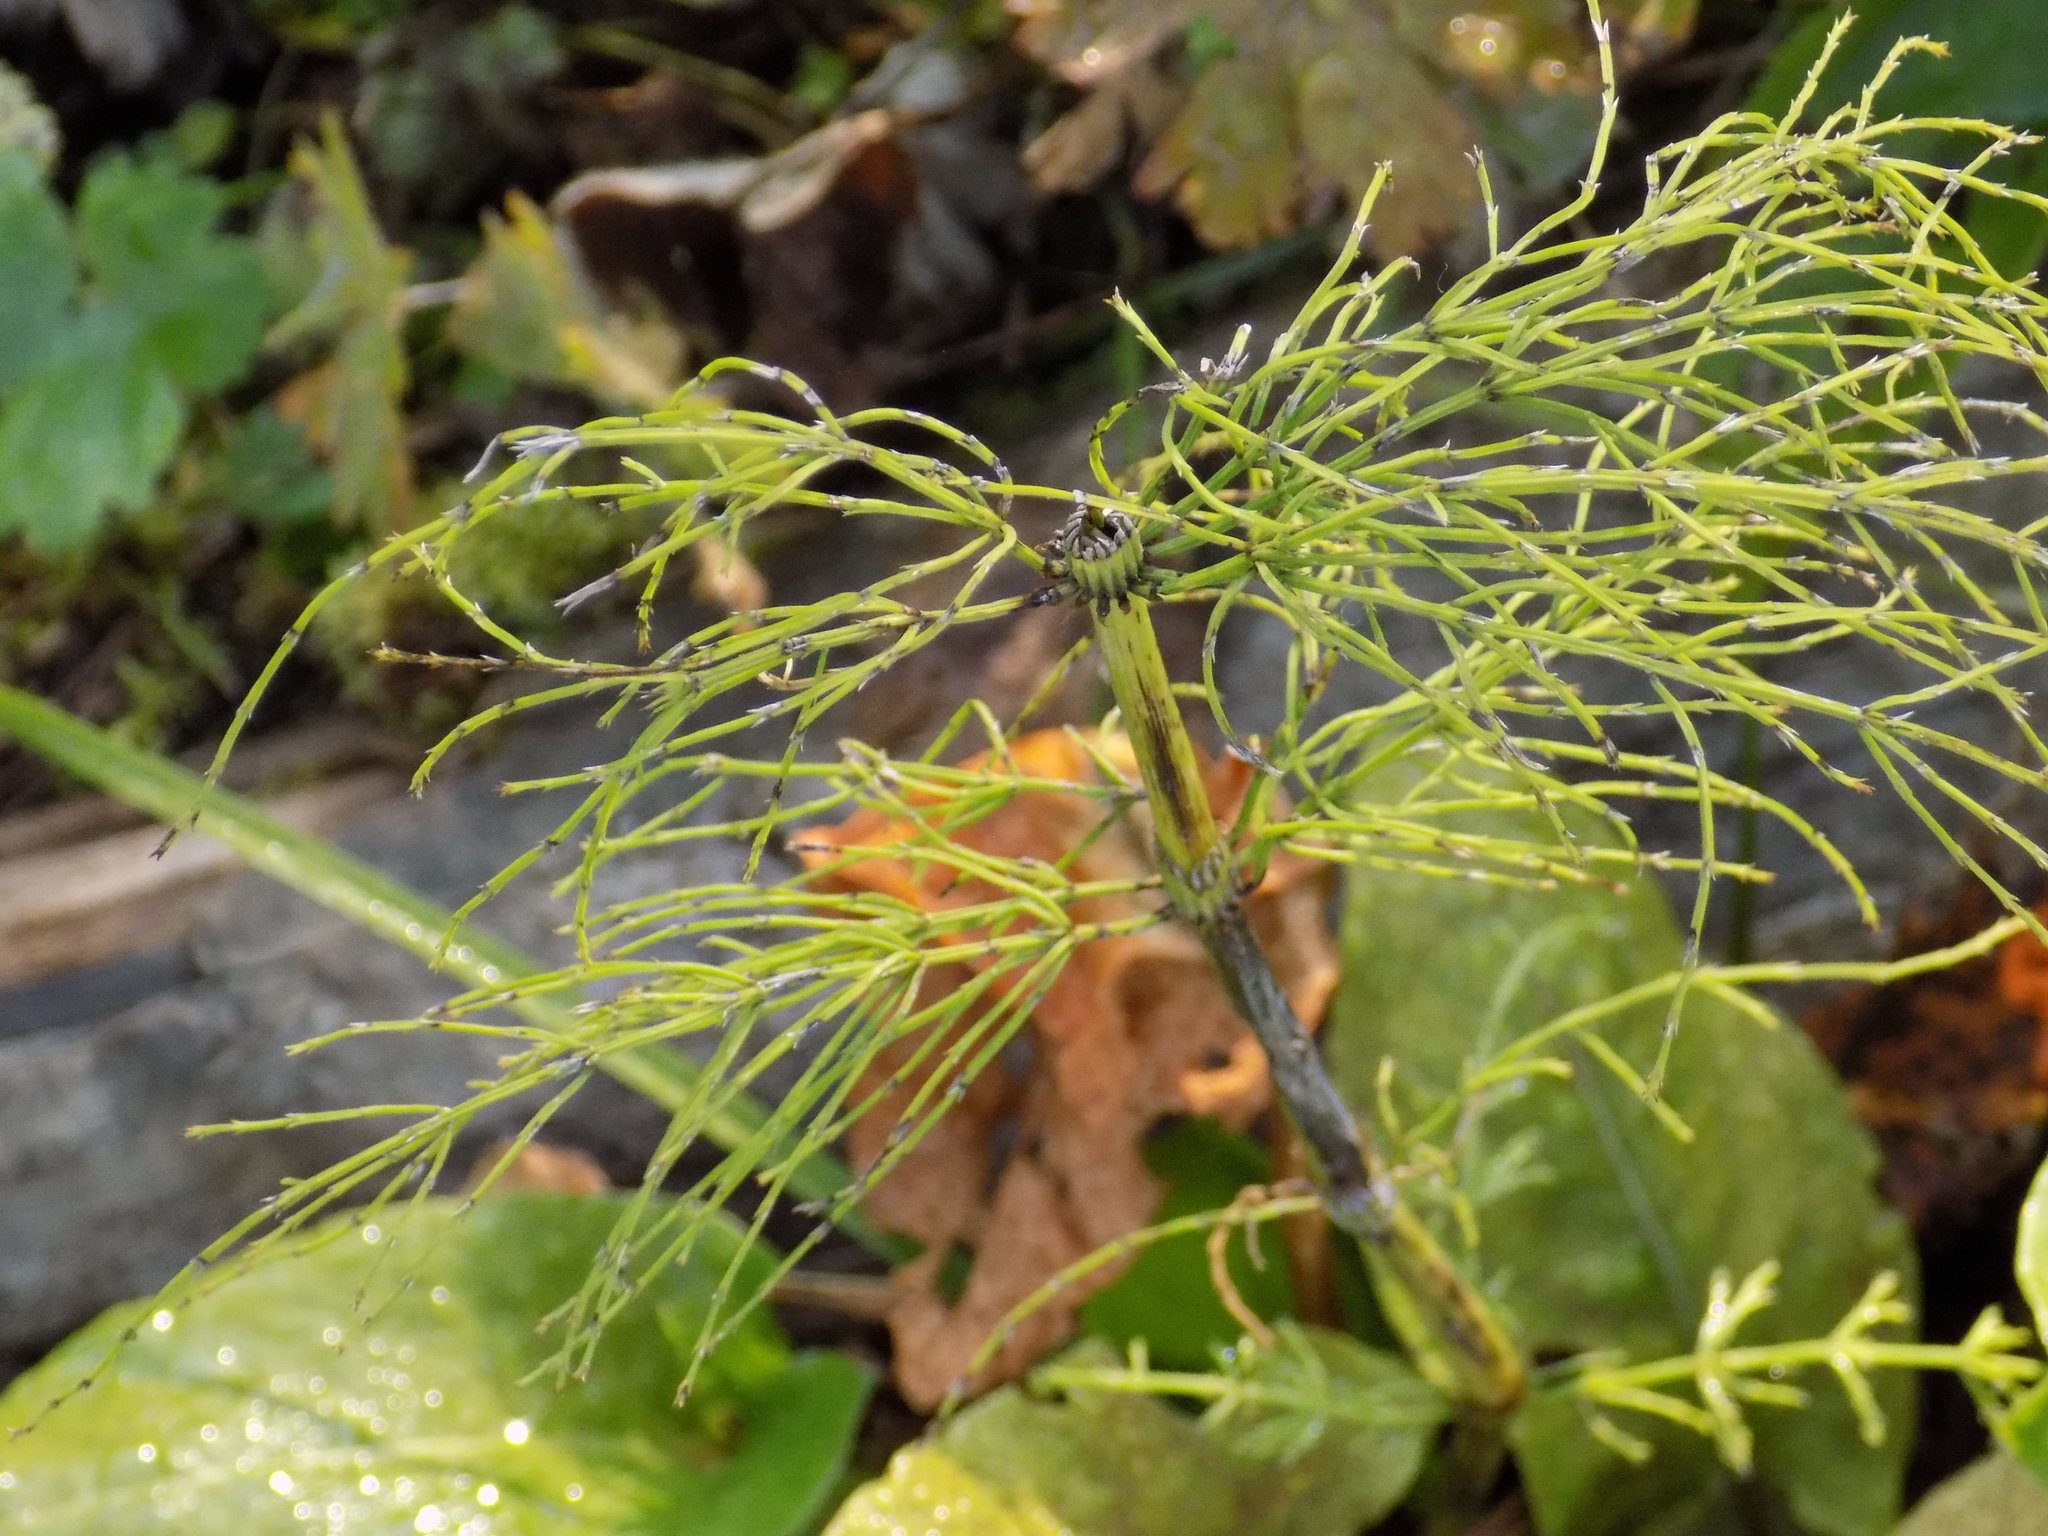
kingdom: Plantae
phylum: Tracheophyta
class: Polypodiopsida
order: Equisetales
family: Equisetaceae
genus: Equisetum
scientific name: Equisetum sylvaticum
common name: Wood horsetail
